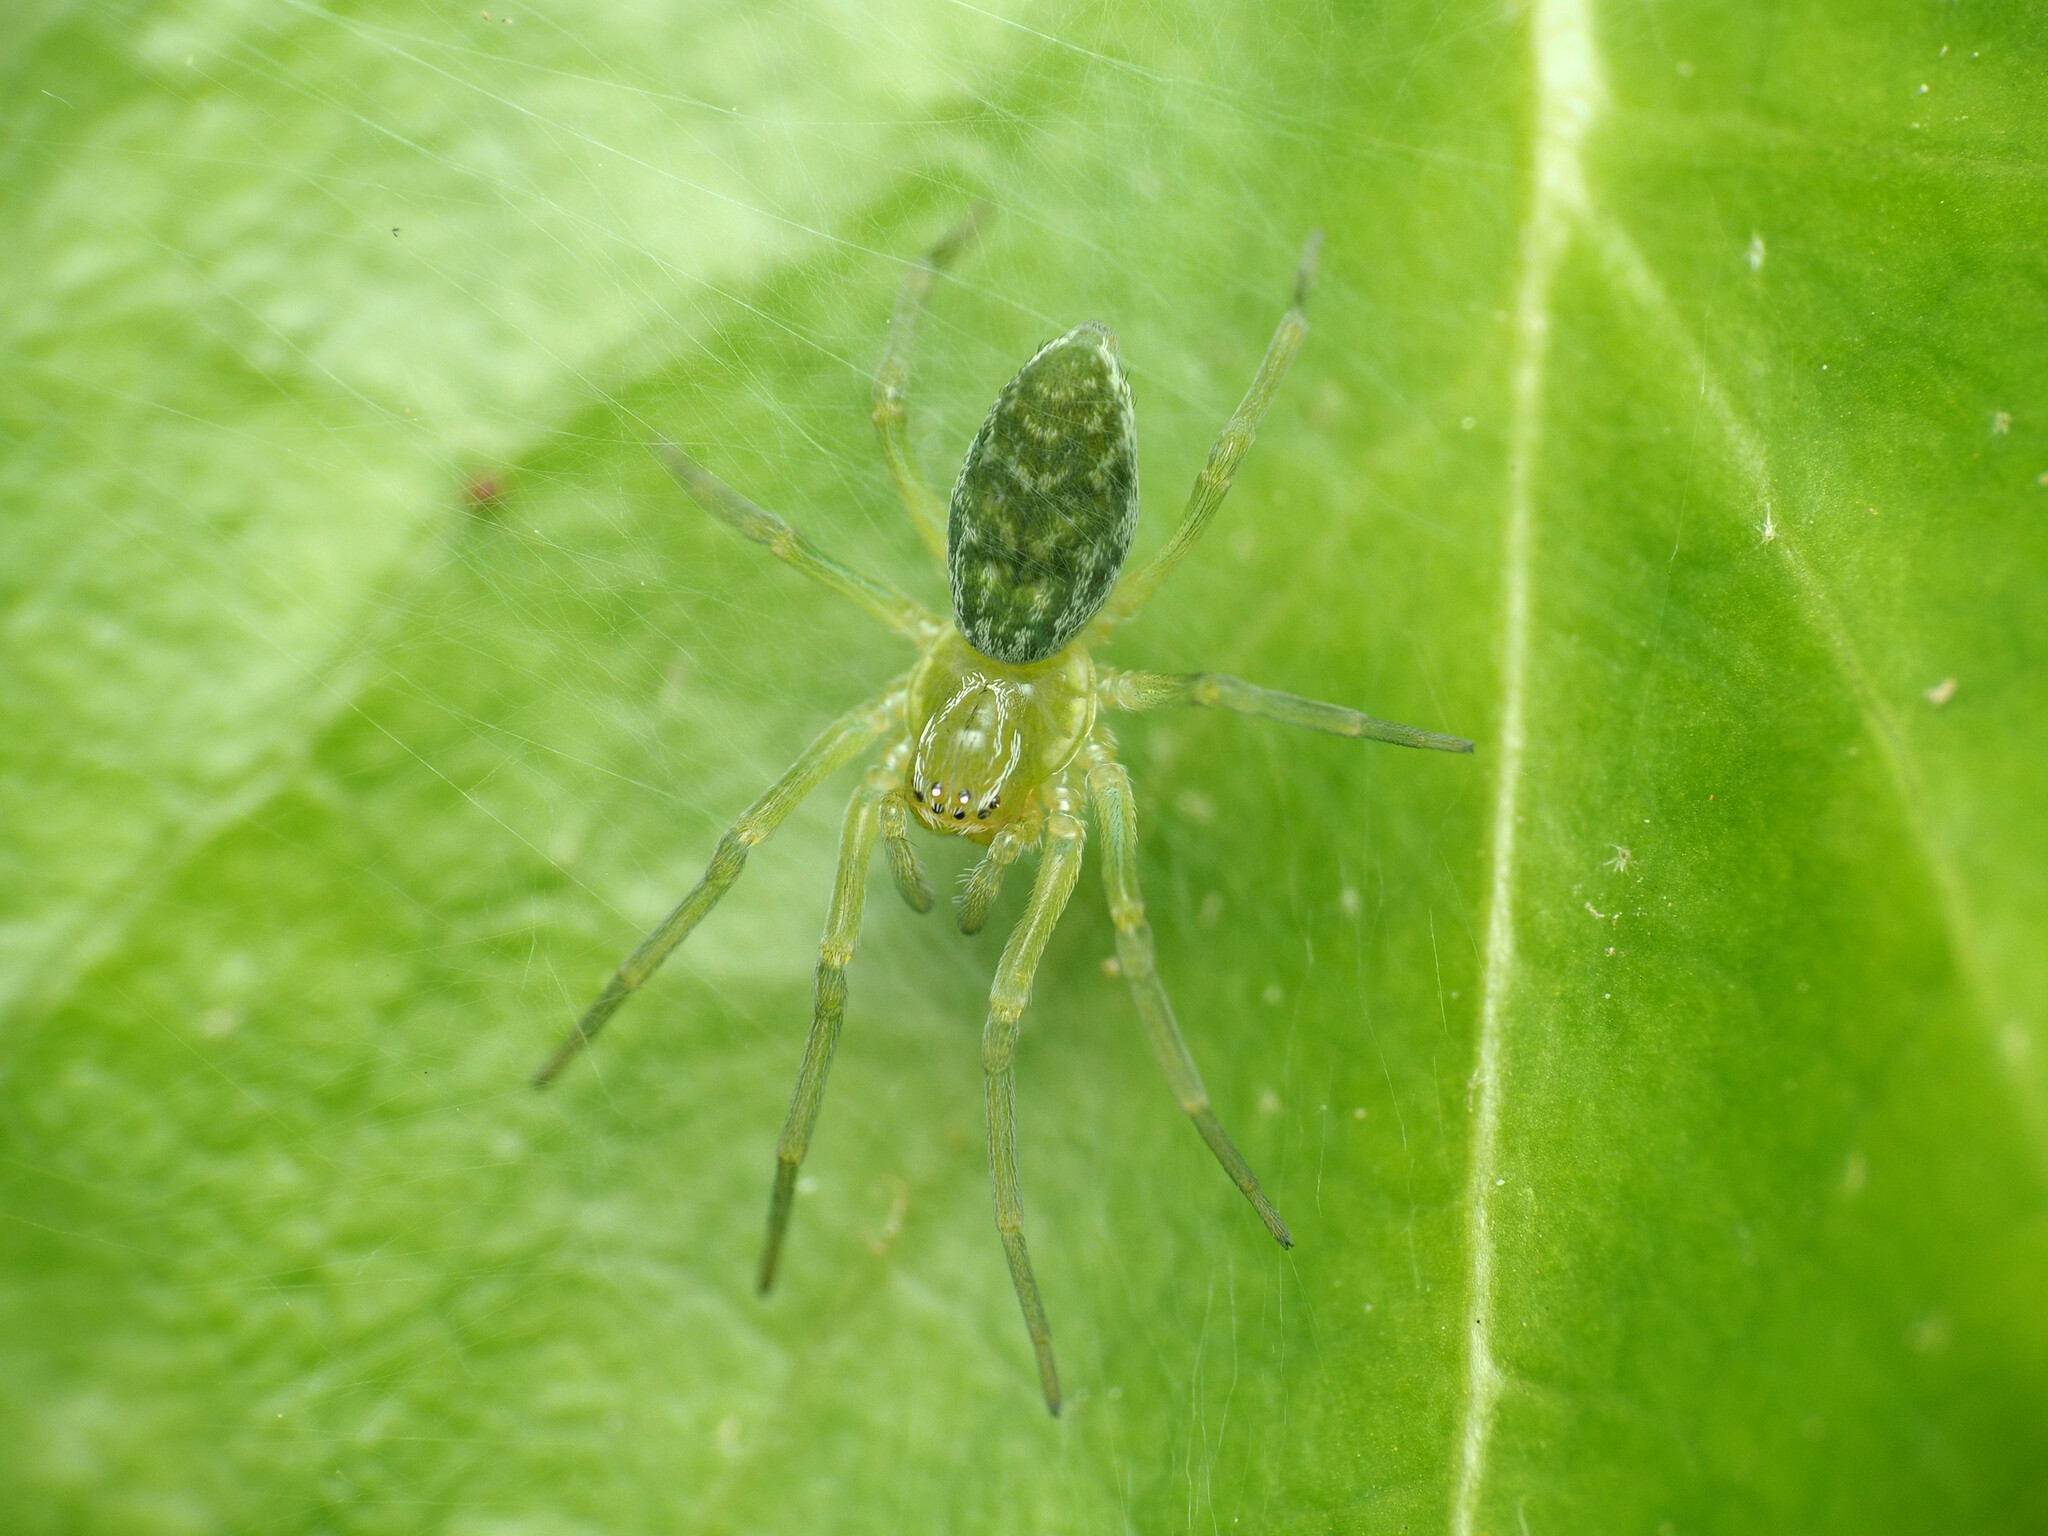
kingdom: Animalia
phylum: Arthropoda
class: Arachnida
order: Araneae
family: Dictynidae
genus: Nigma
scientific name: Nigma walckenaeri
